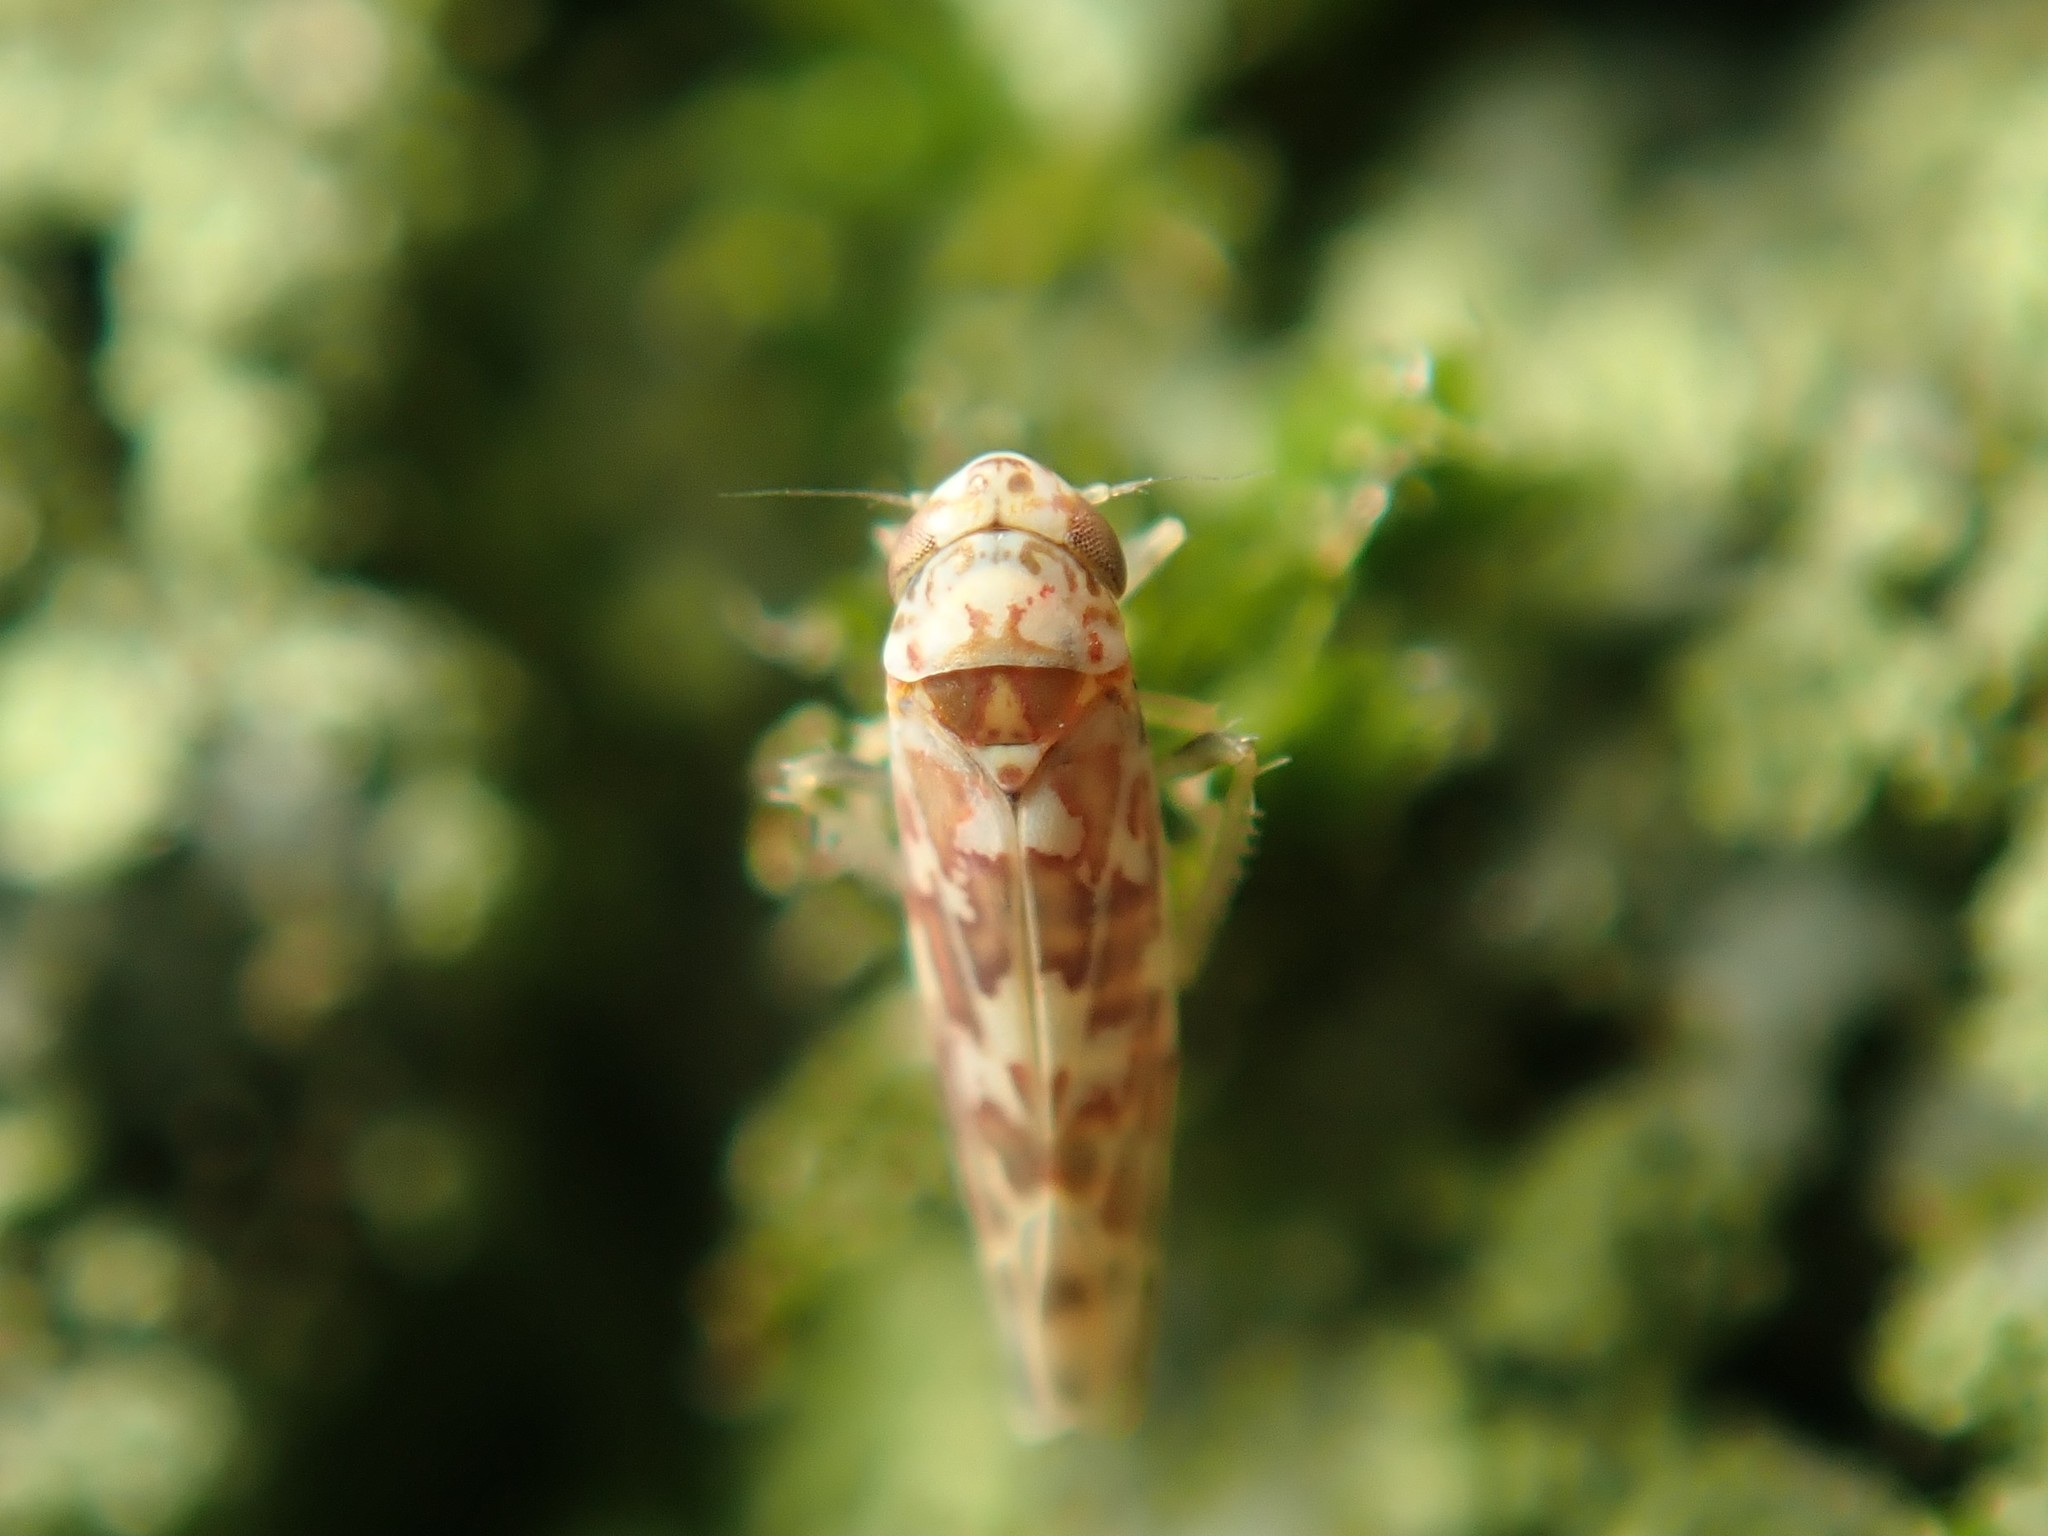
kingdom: Animalia
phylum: Arthropoda
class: Insecta
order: Hemiptera
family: Cicadellidae
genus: Tautoneura
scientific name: Tautoneura polymitusa
